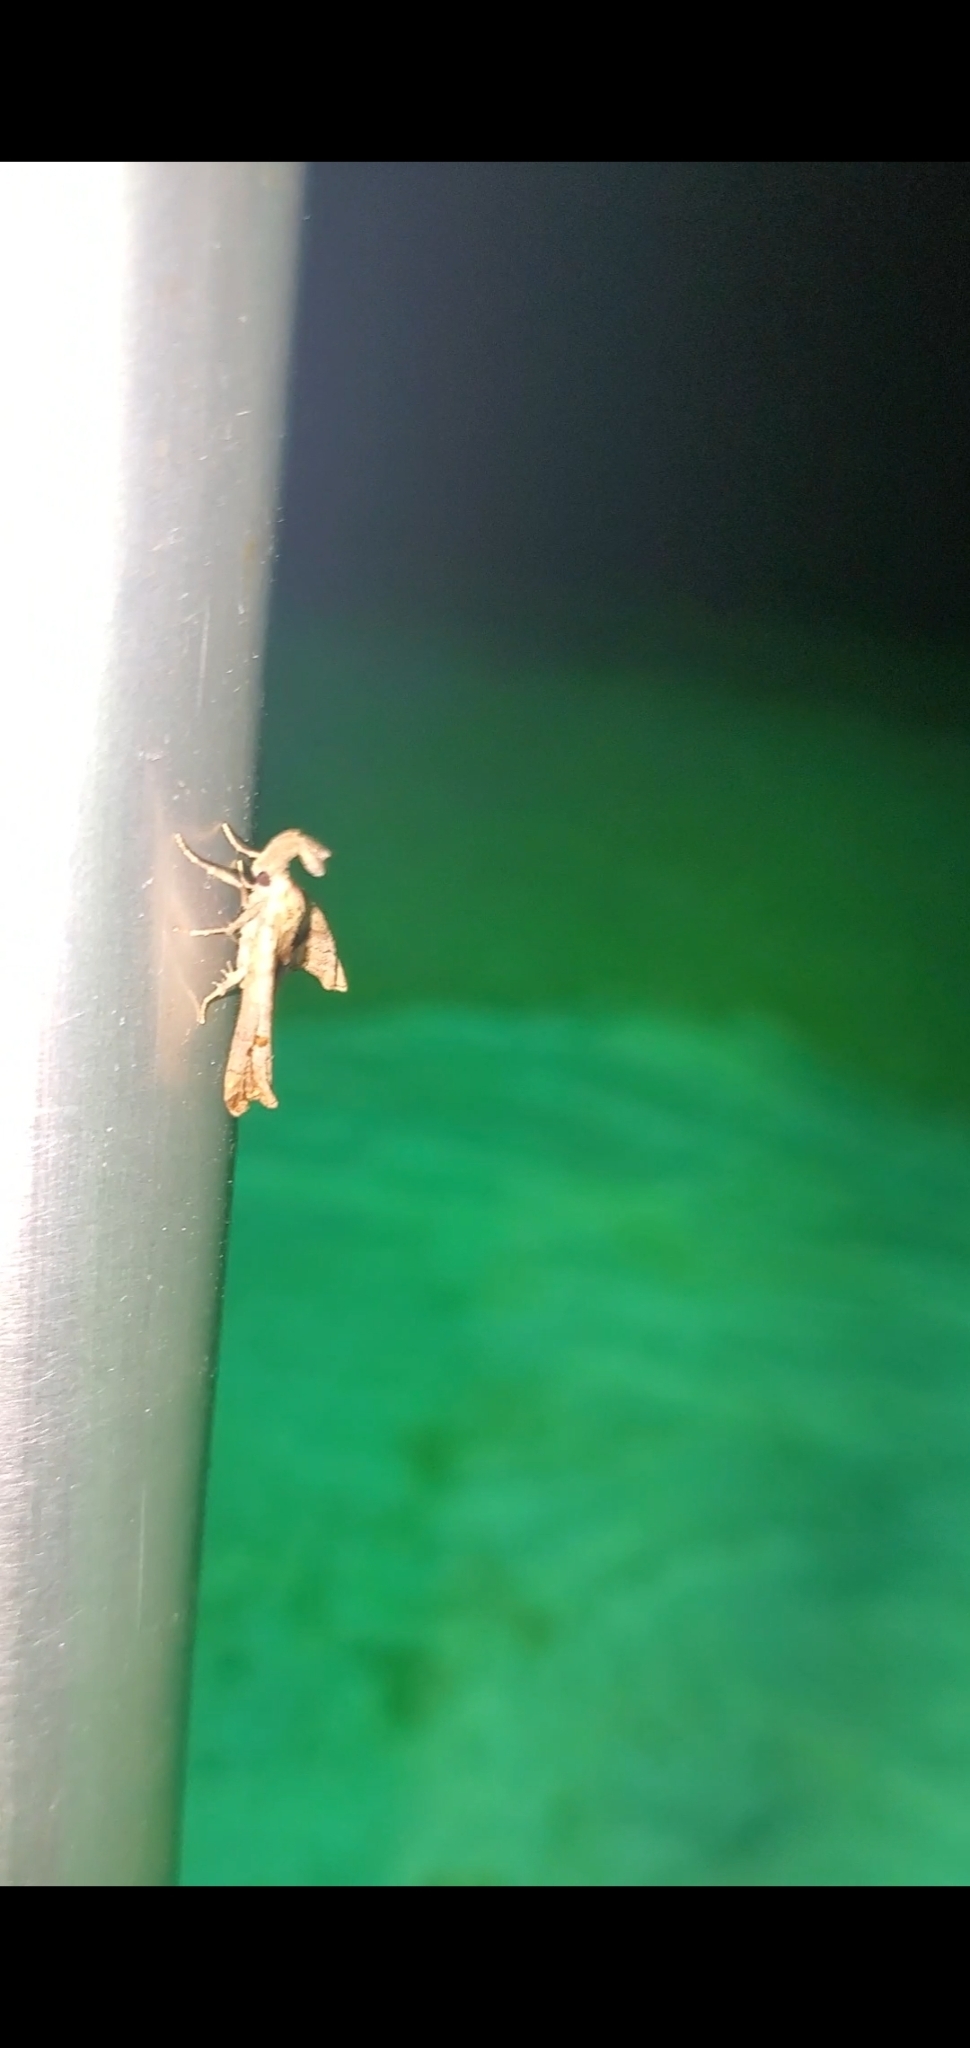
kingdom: Animalia
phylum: Arthropoda
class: Insecta
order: Lepidoptera
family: Erebidae
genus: Palthis
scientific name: Palthis angulalis
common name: Dark-spotted palthis moth
